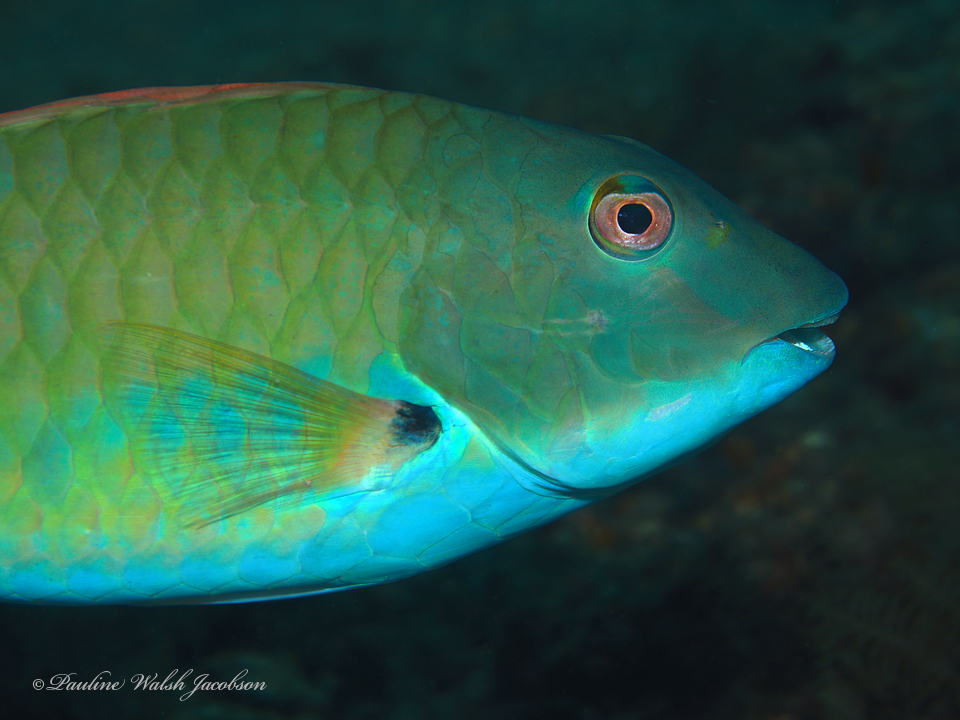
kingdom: Animalia
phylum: Chordata
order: Perciformes
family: Scaridae
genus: Sparisoma
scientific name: Sparisoma chrysopterum
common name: Redtail parrotfish
